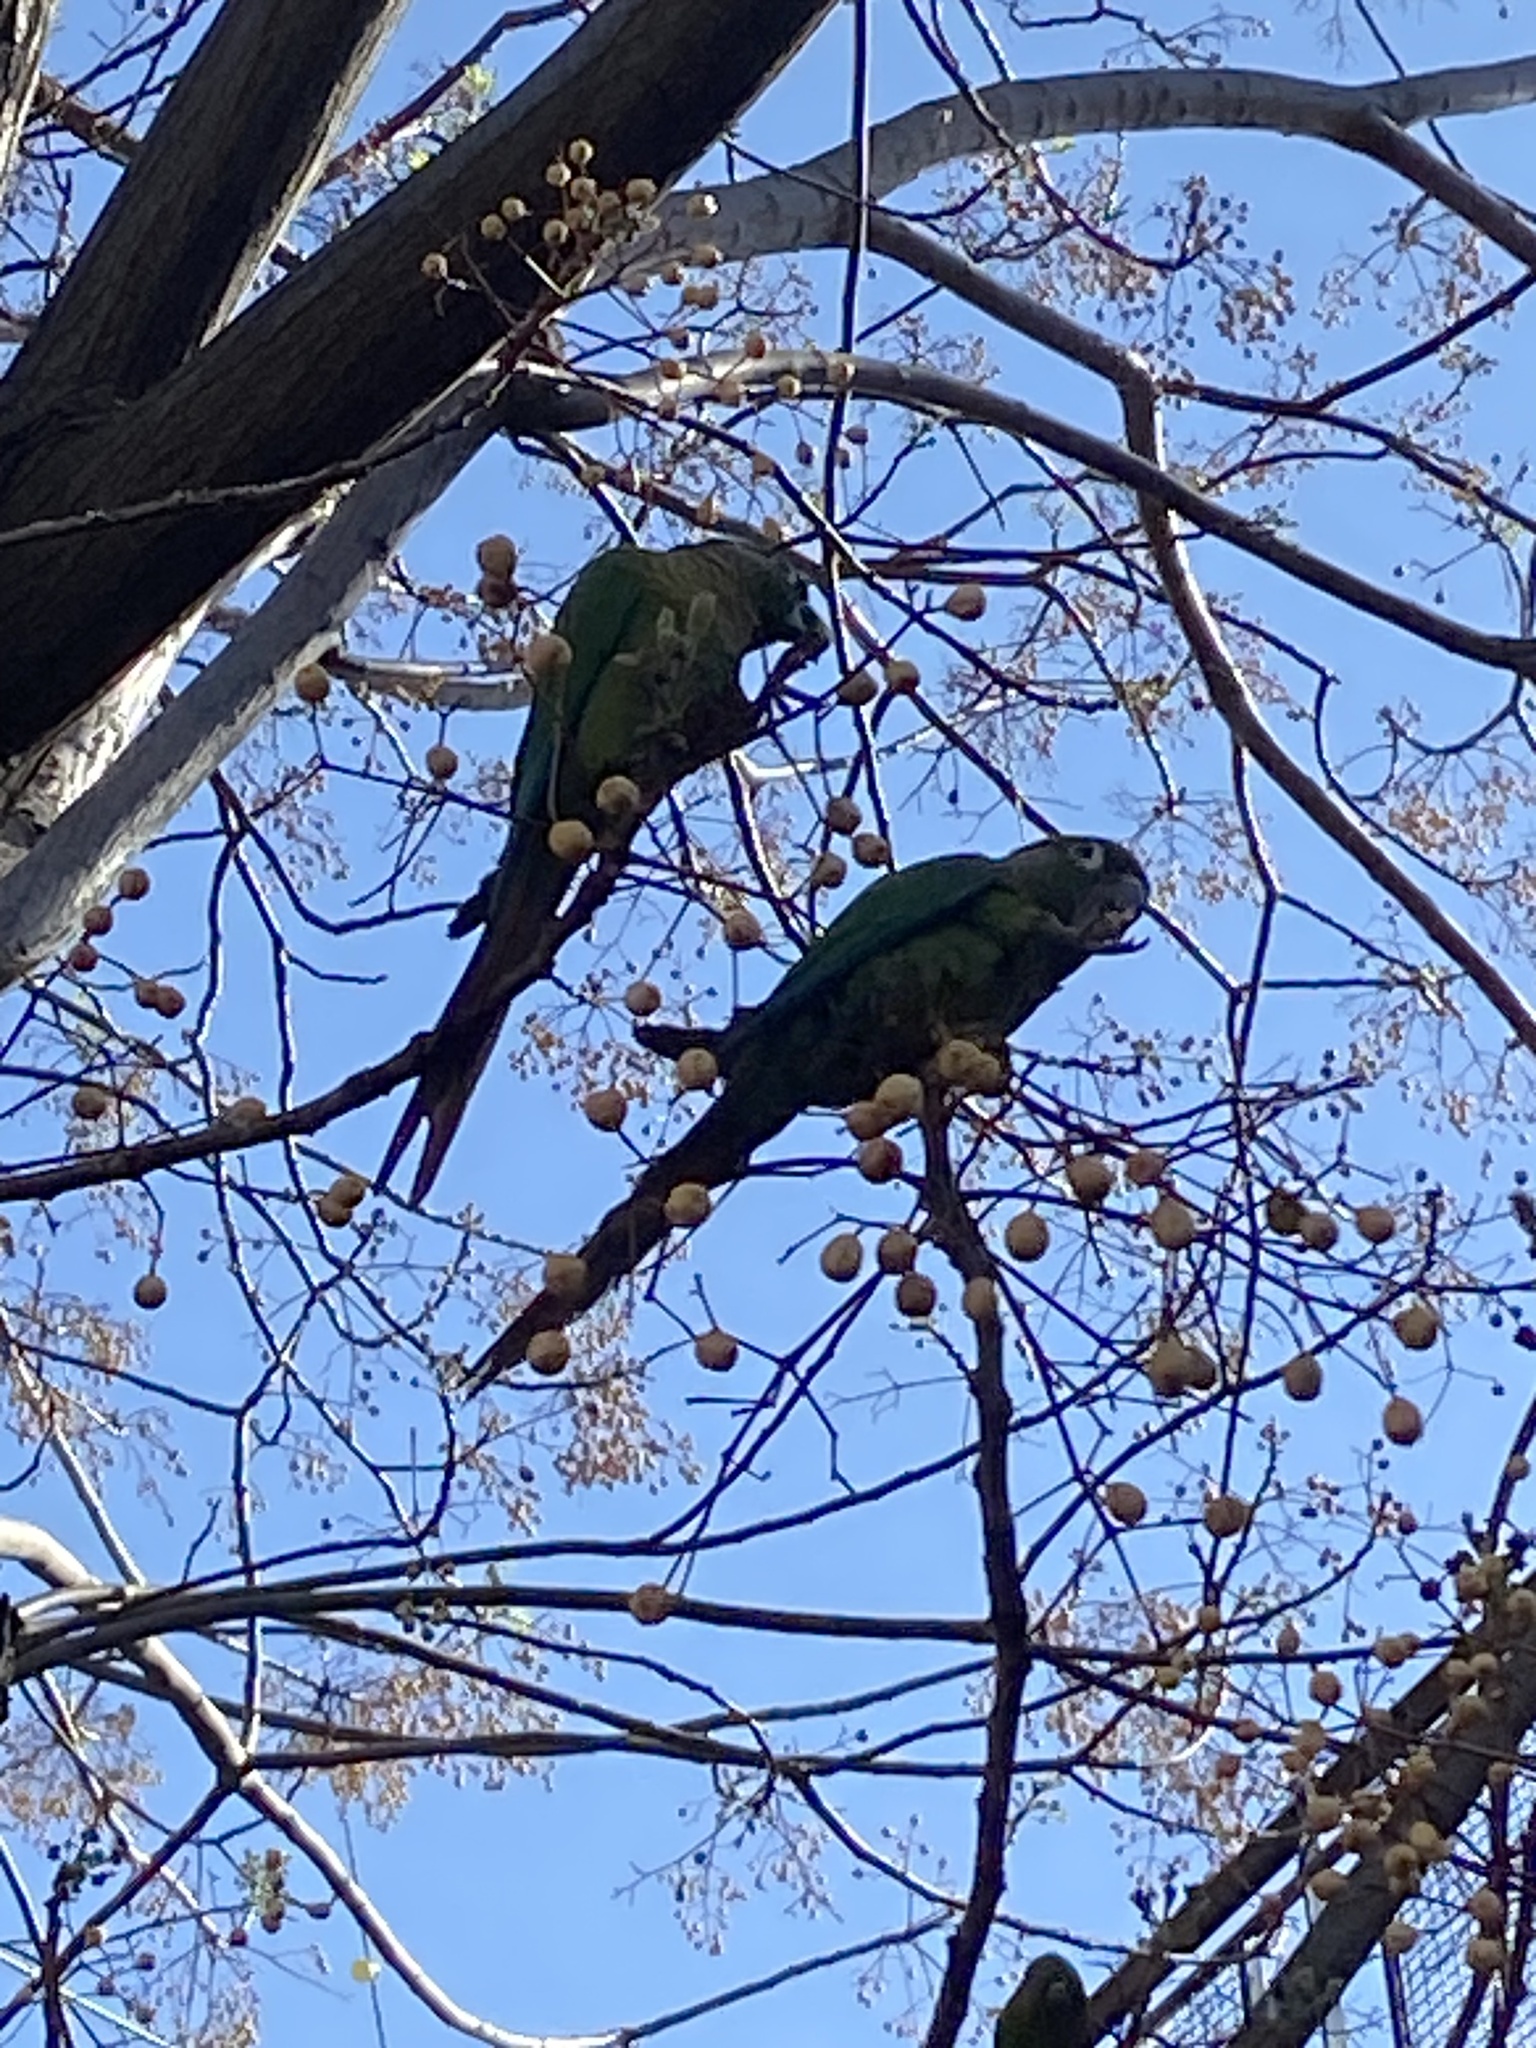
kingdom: Animalia
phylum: Chordata
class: Aves
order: Psittaciformes
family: Psittacidae
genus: Pyrrhura
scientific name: Pyrrhura frontalis
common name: Maroon-bellied parakeet
